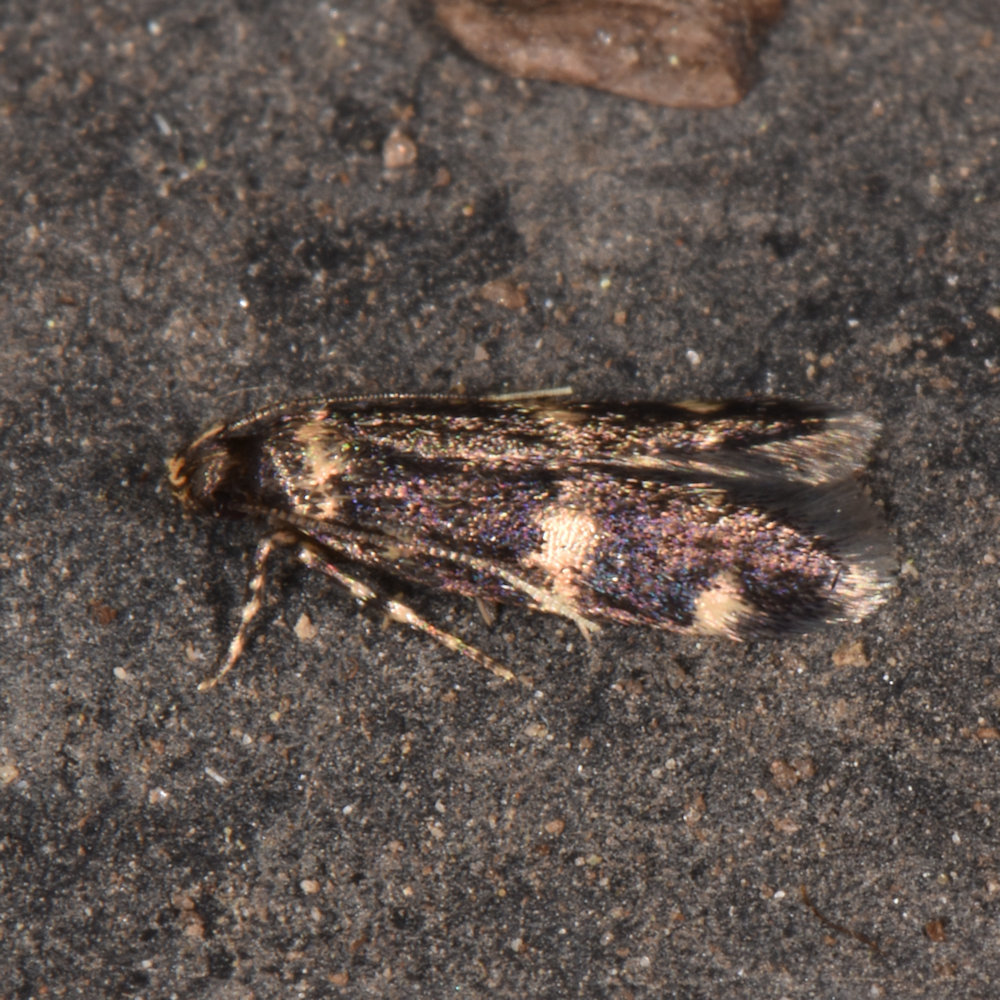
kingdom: Animalia
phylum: Arthropoda
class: Insecta
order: Lepidoptera
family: Nepticulidae
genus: Etainia
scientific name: Etainia sericopeza
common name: Leafminer
